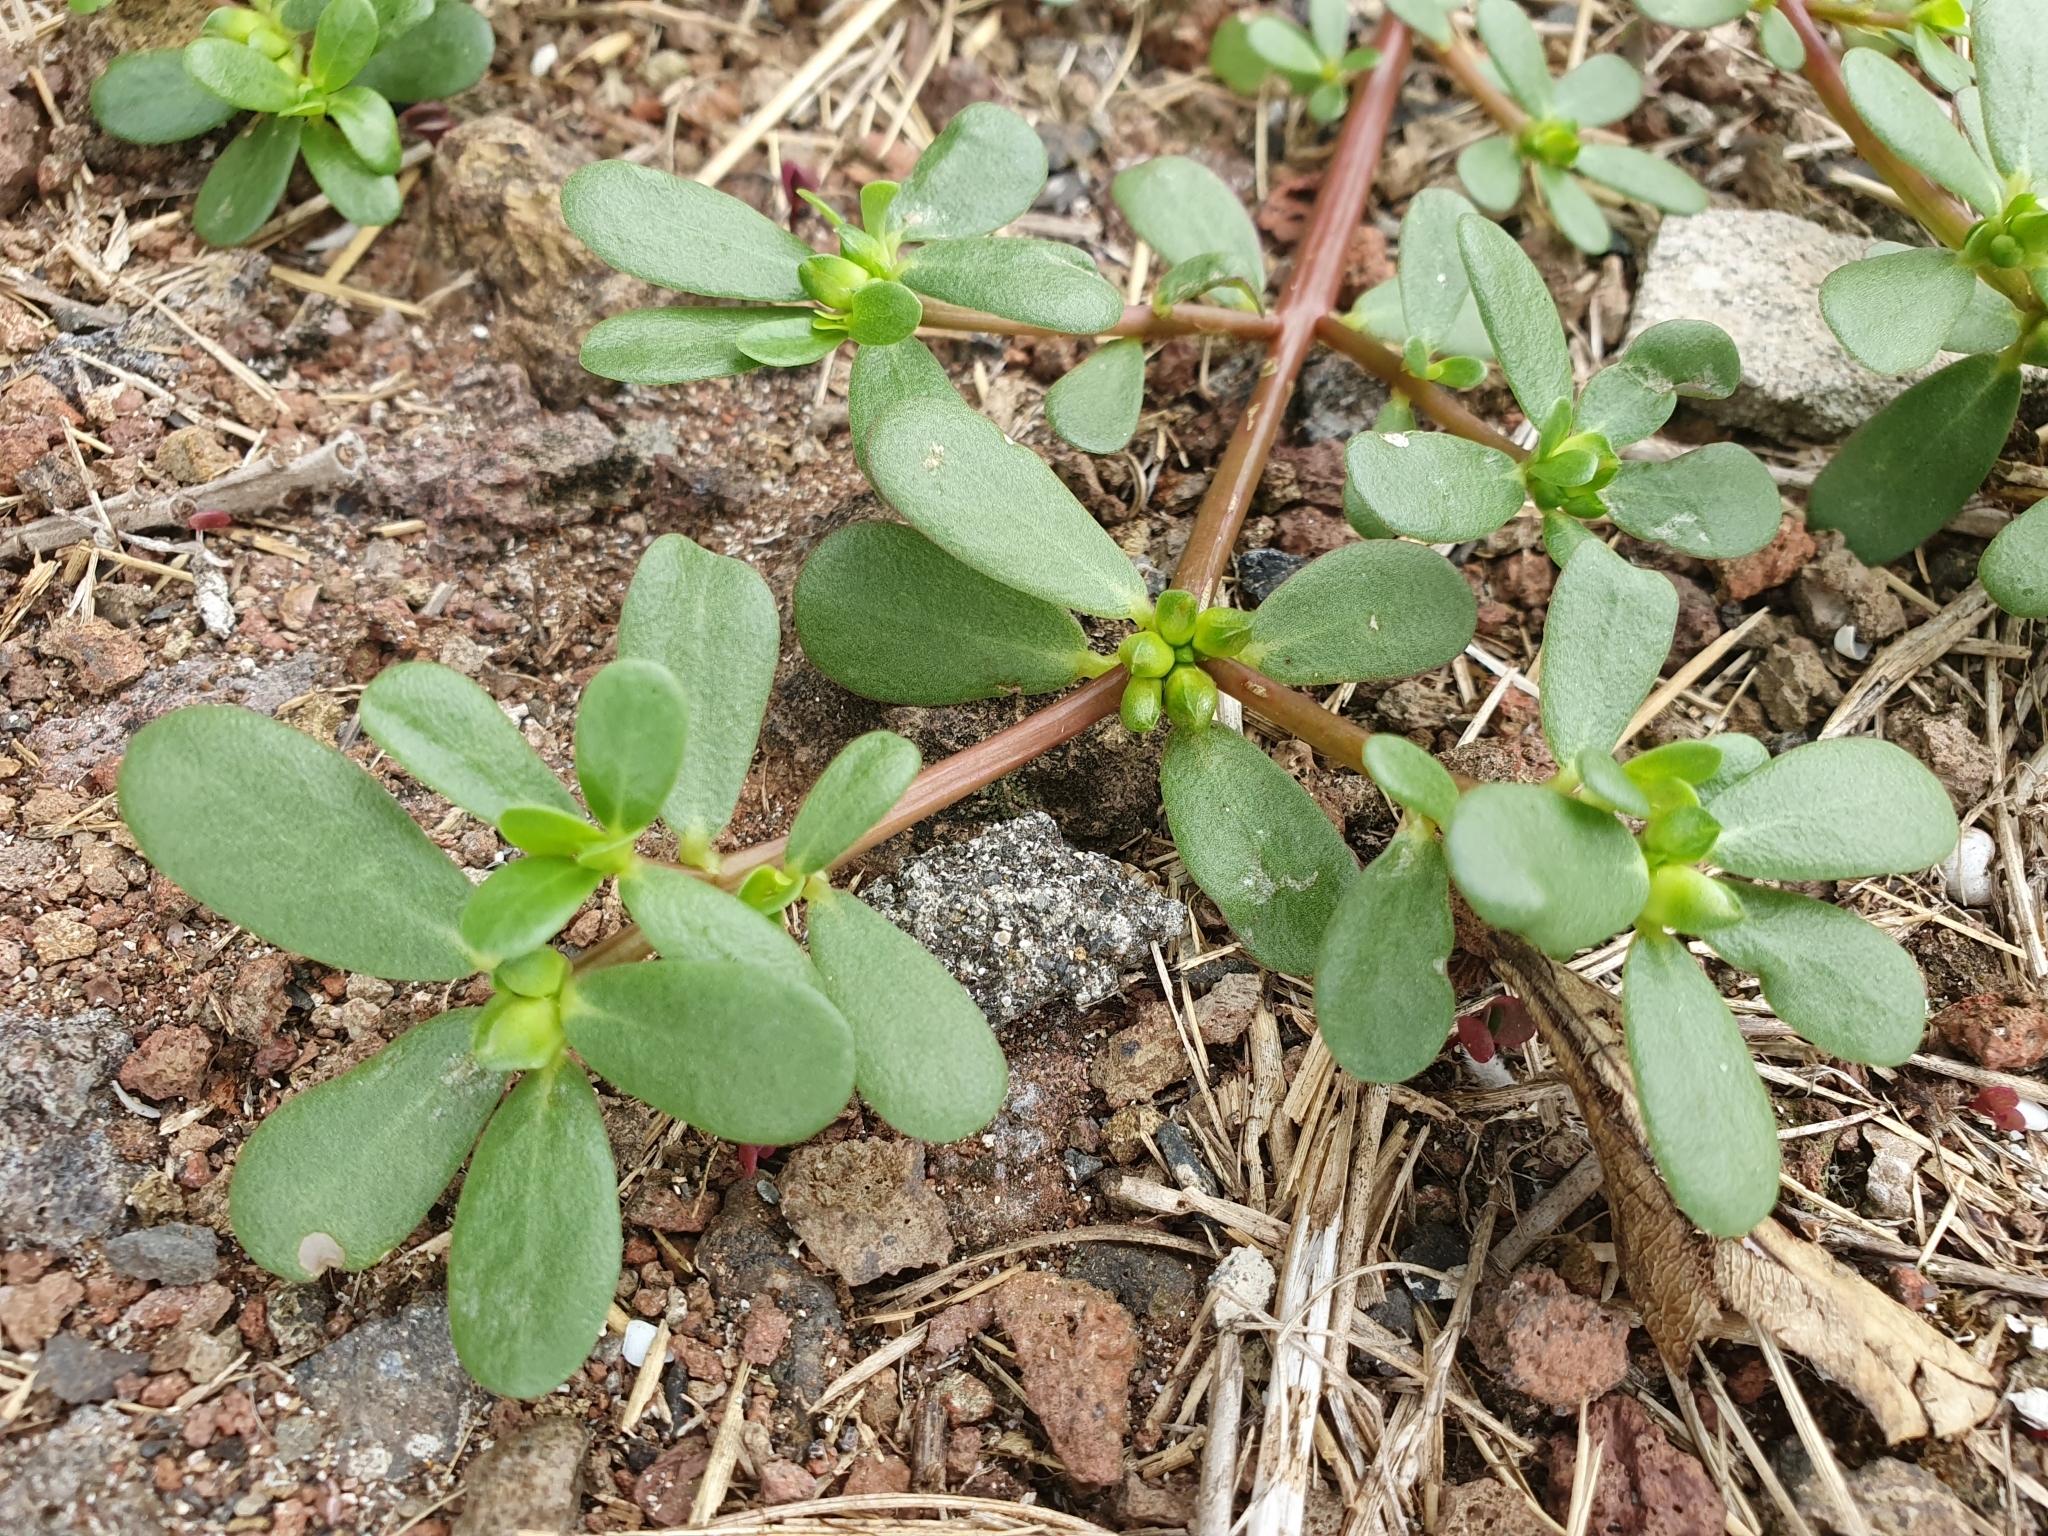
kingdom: Plantae
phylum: Tracheophyta
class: Magnoliopsida
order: Caryophyllales
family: Portulacaceae
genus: Portulaca
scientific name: Portulaca oleracea
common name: Common purslane
